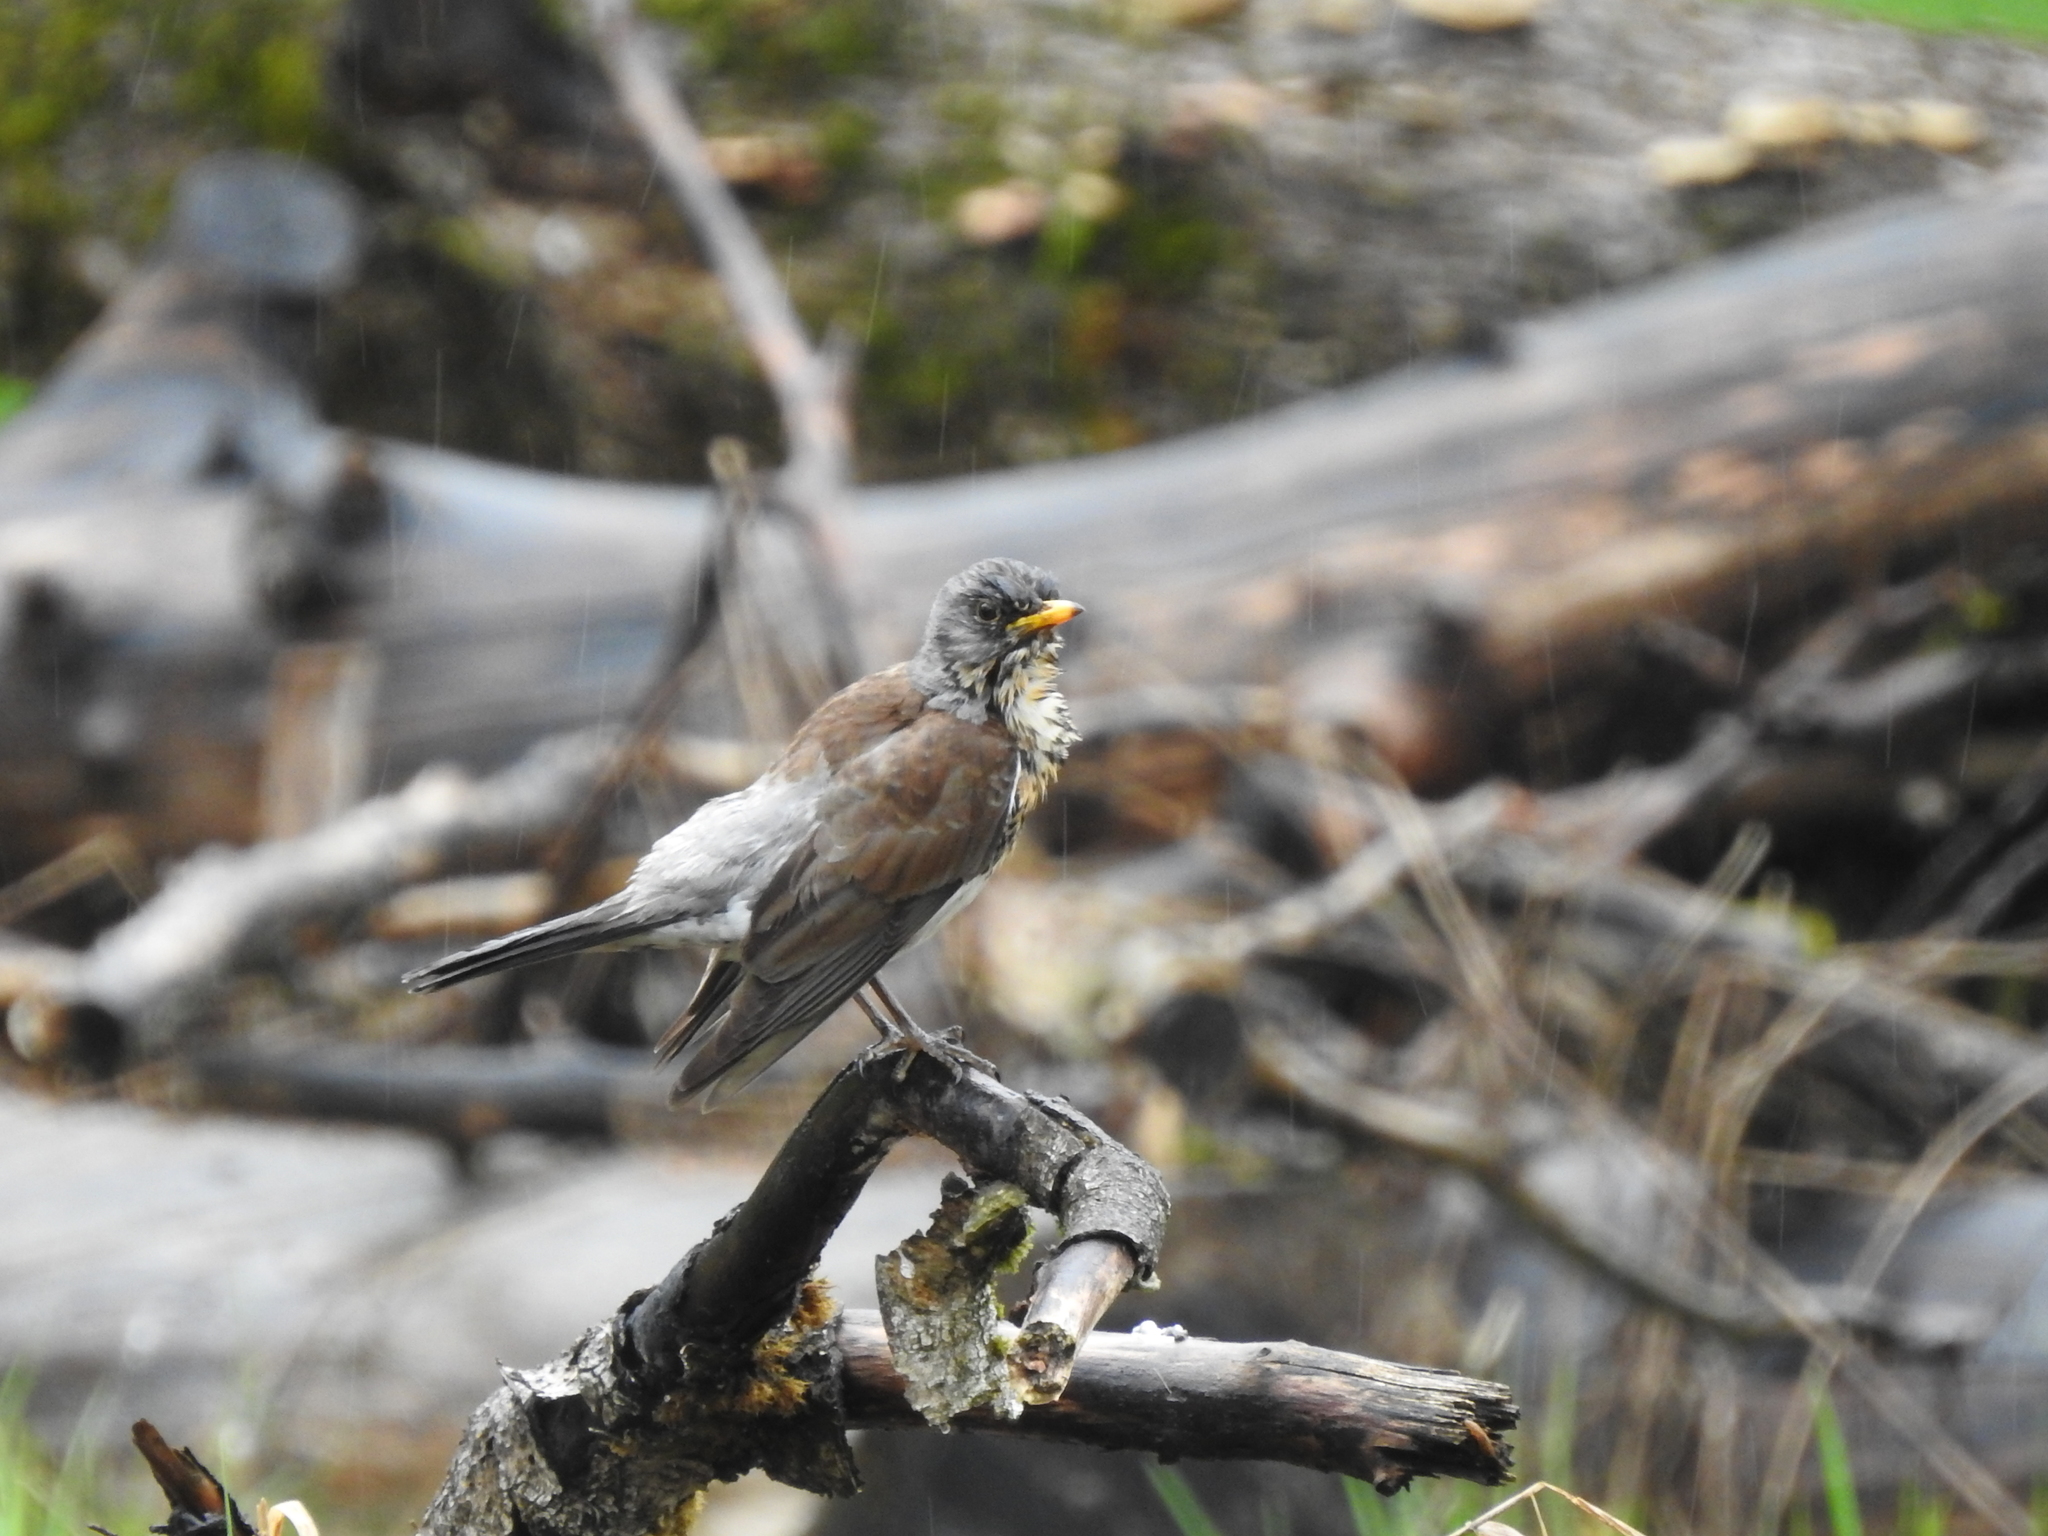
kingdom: Animalia
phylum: Chordata
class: Aves
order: Passeriformes
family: Turdidae
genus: Turdus
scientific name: Turdus pilaris
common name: Fieldfare
